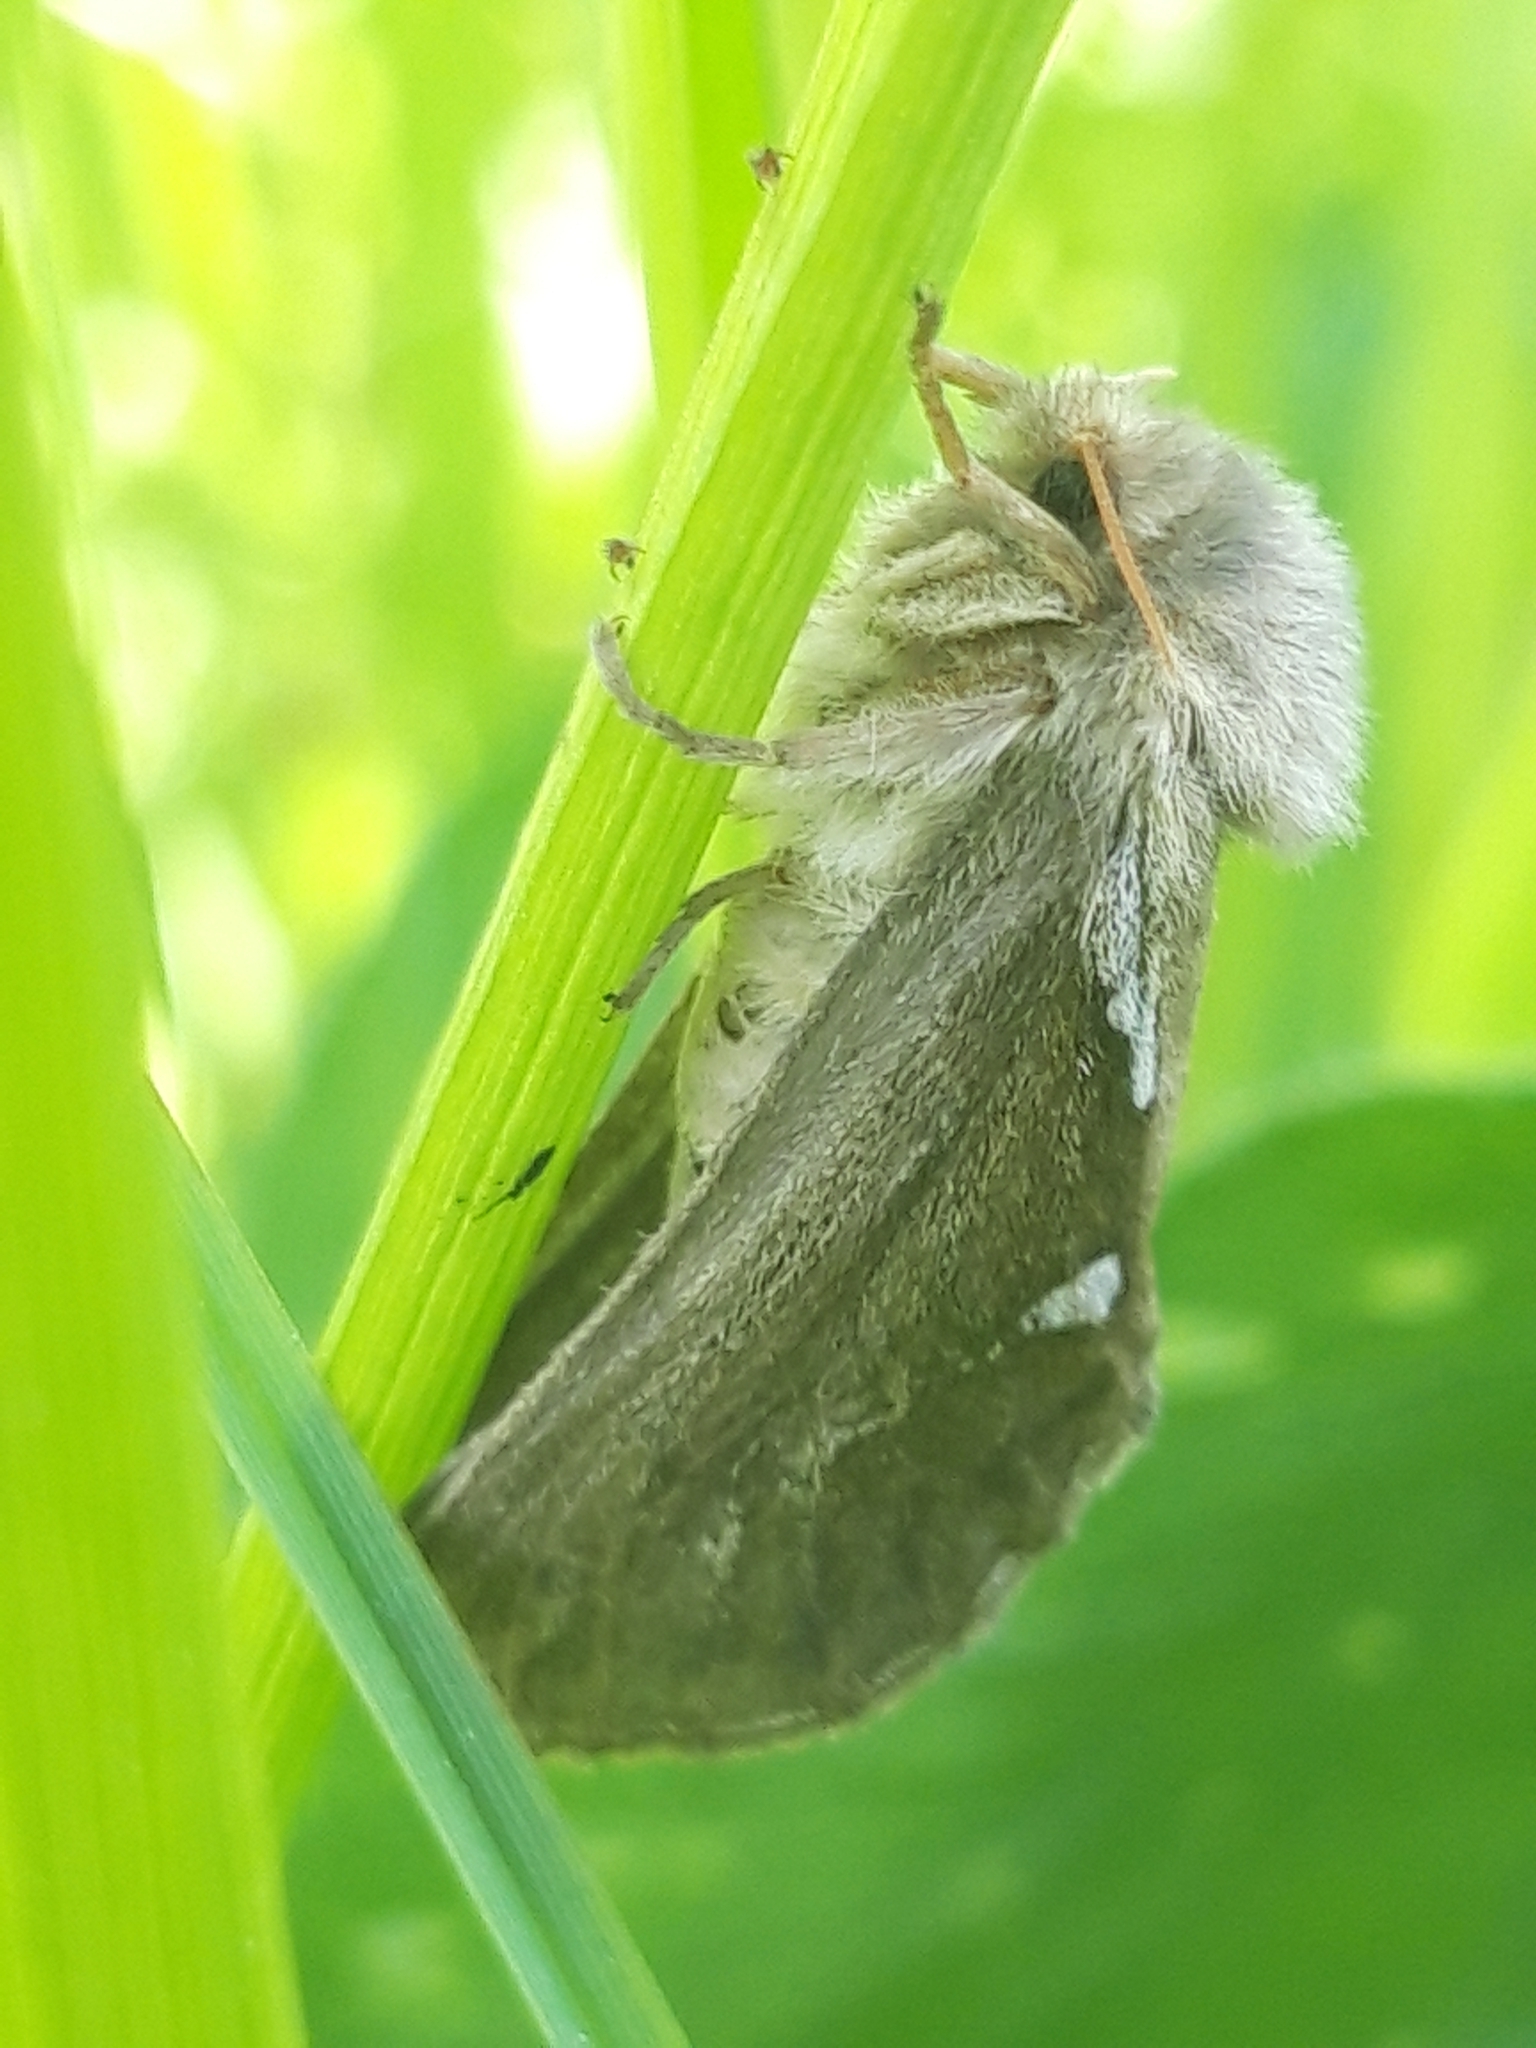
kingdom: Animalia
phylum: Arthropoda
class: Insecta
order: Lepidoptera
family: Hepialidae
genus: Korscheltellus
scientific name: Korscheltellus lupulina
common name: Common swift
